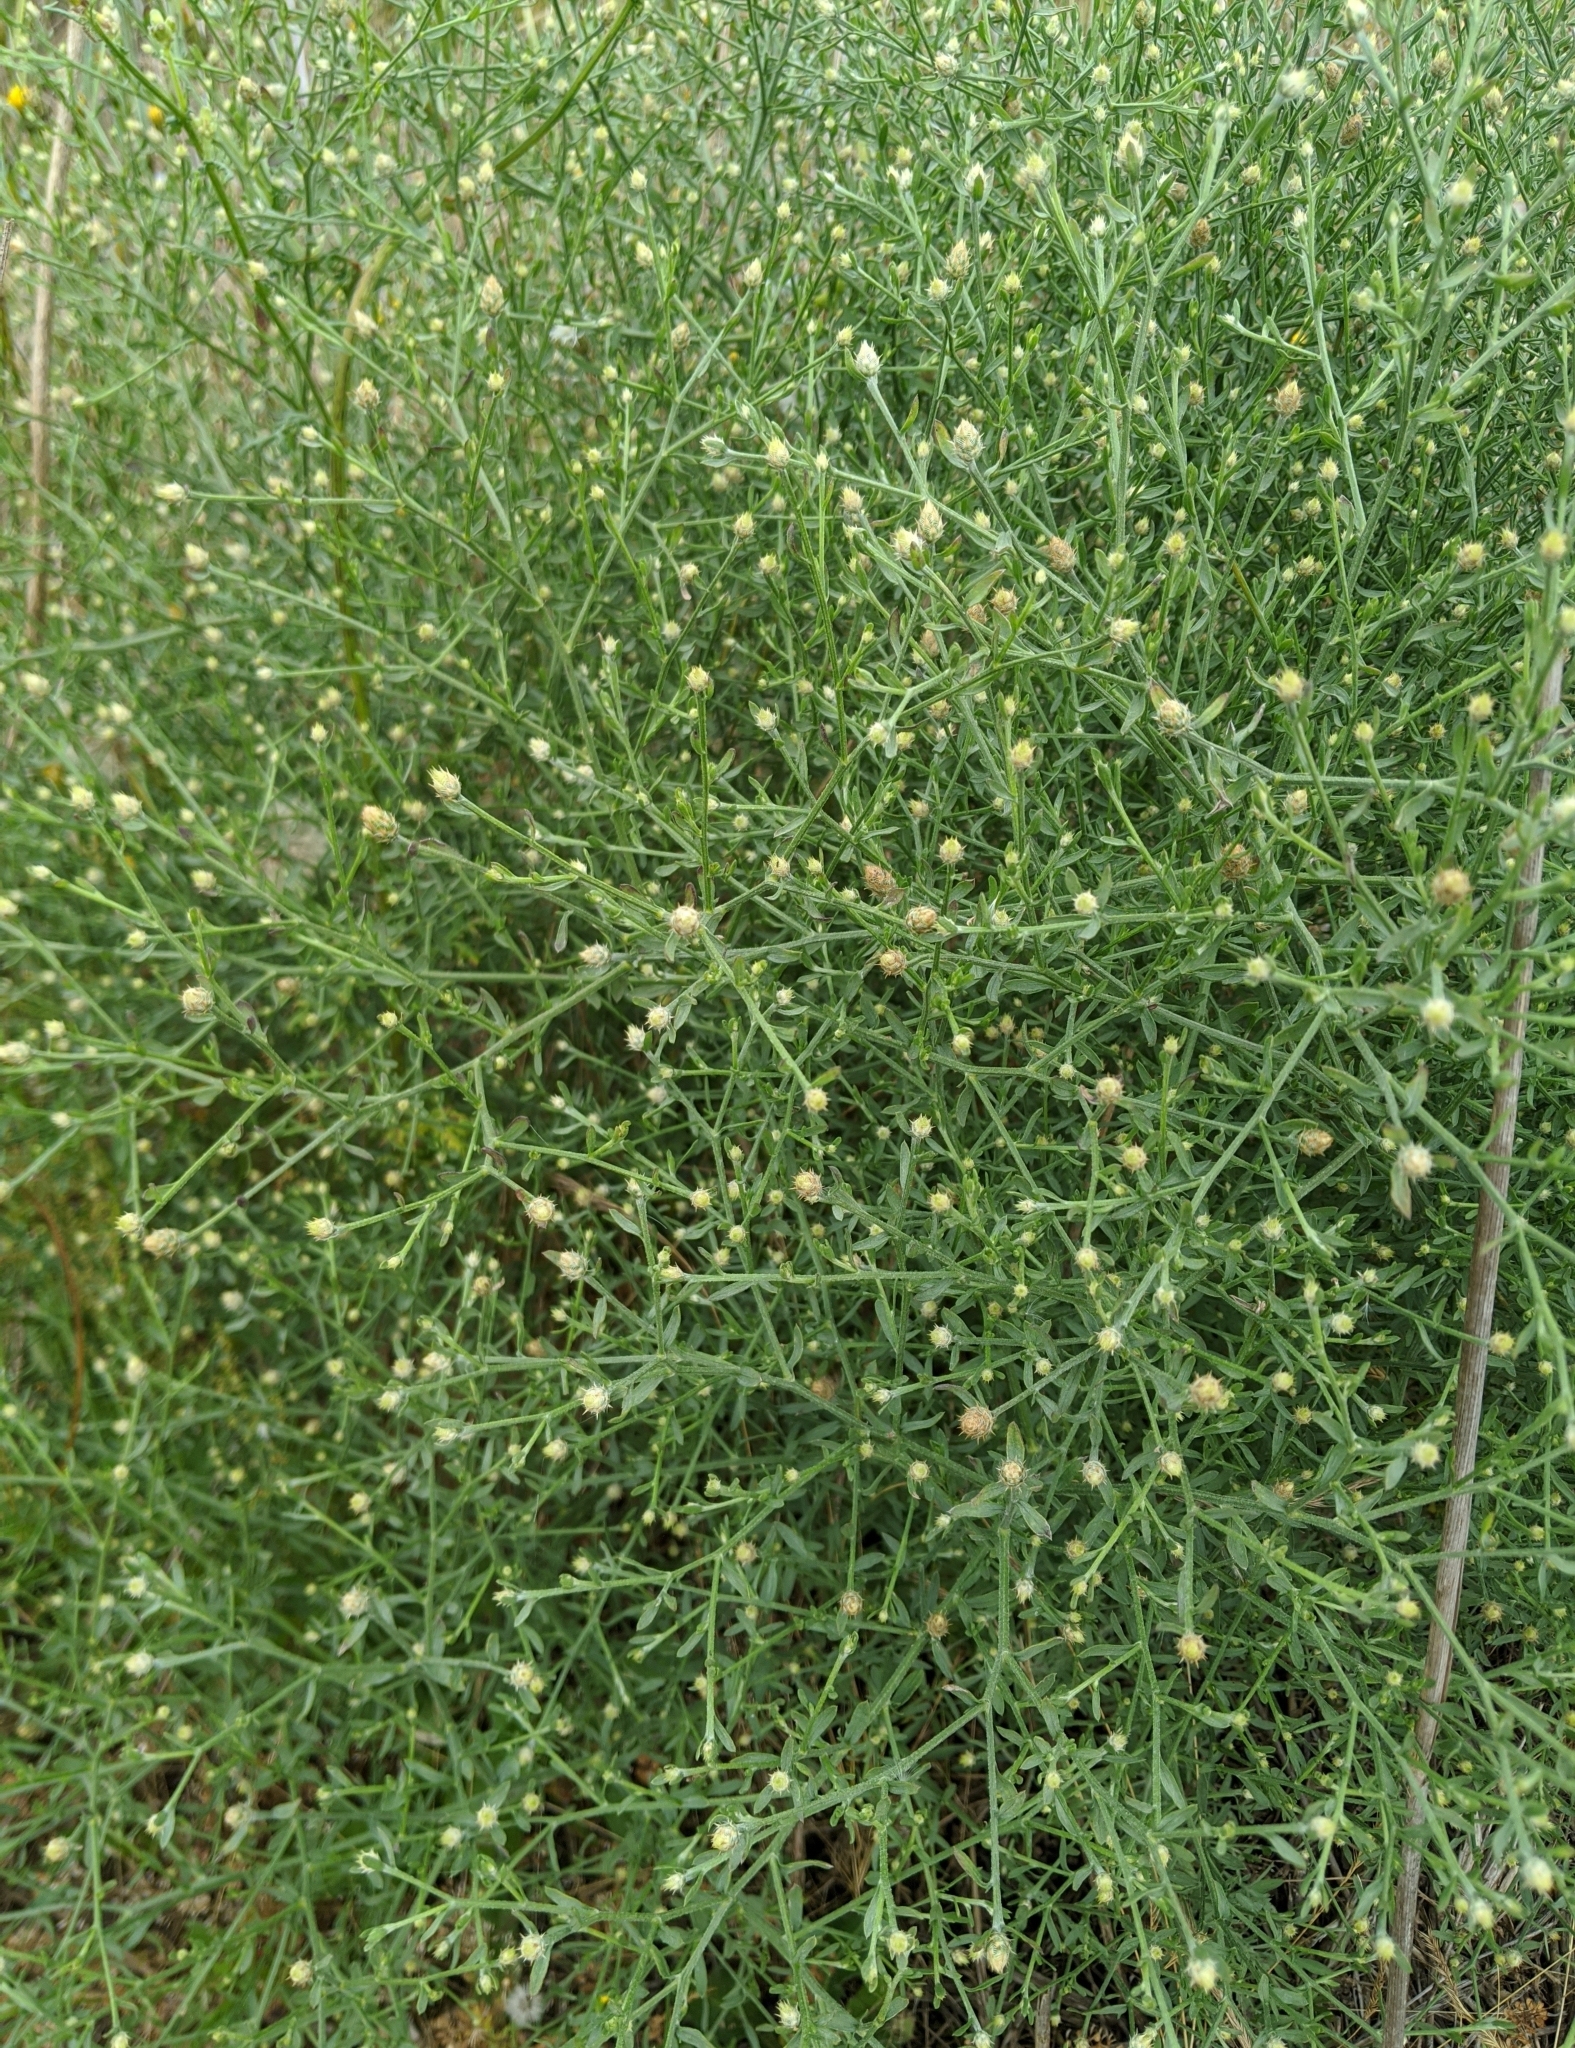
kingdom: Plantae
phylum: Tracheophyta
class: Magnoliopsida
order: Asterales
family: Asteraceae
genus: Centaurea
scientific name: Centaurea diffusa
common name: Diffuse knapweed
